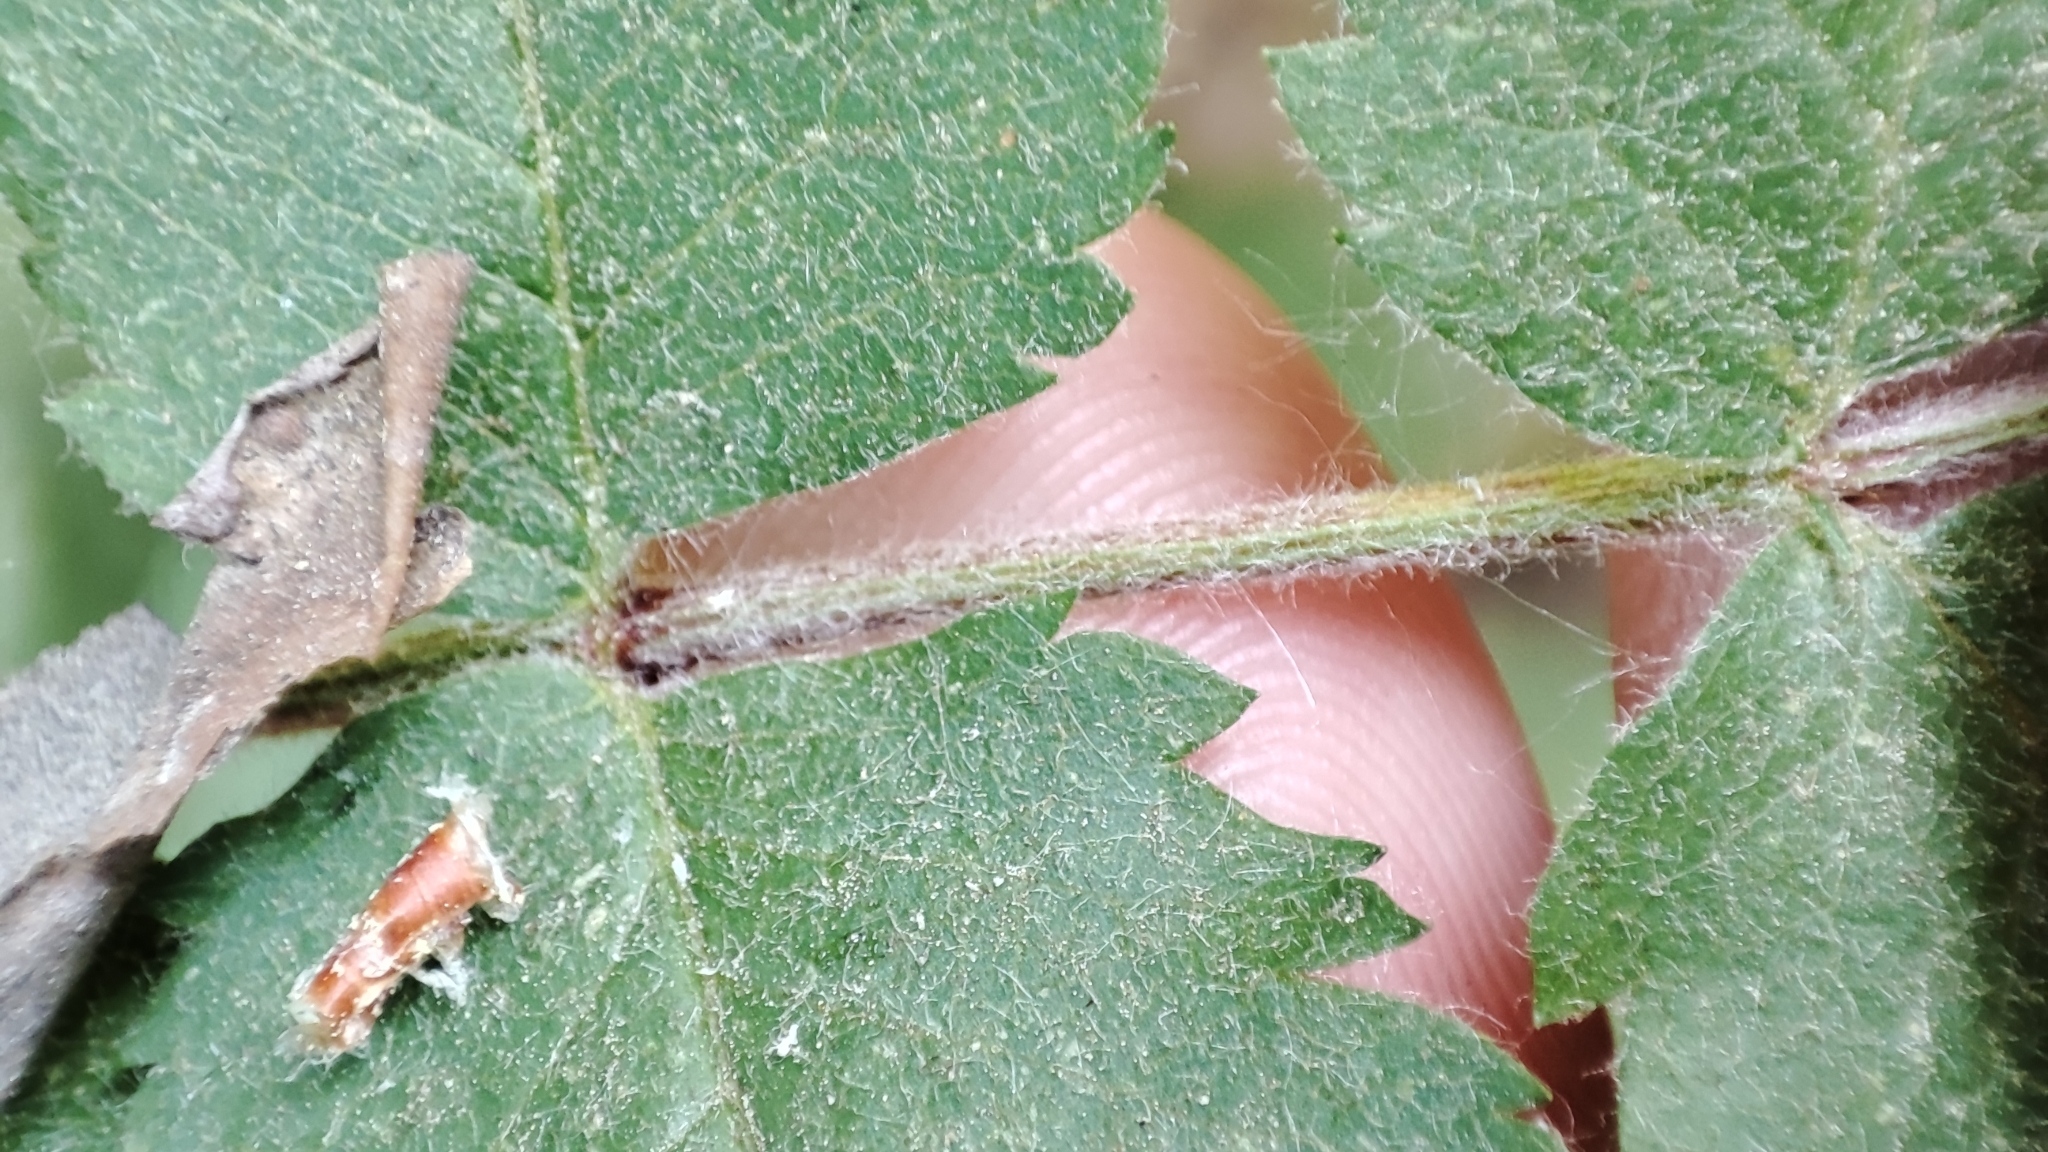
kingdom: Plantae
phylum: Tracheophyta
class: Magnoliopsida
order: Rosales
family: Rosaceae
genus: Sorbus
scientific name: Sorbus aucuparia
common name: Rowan
